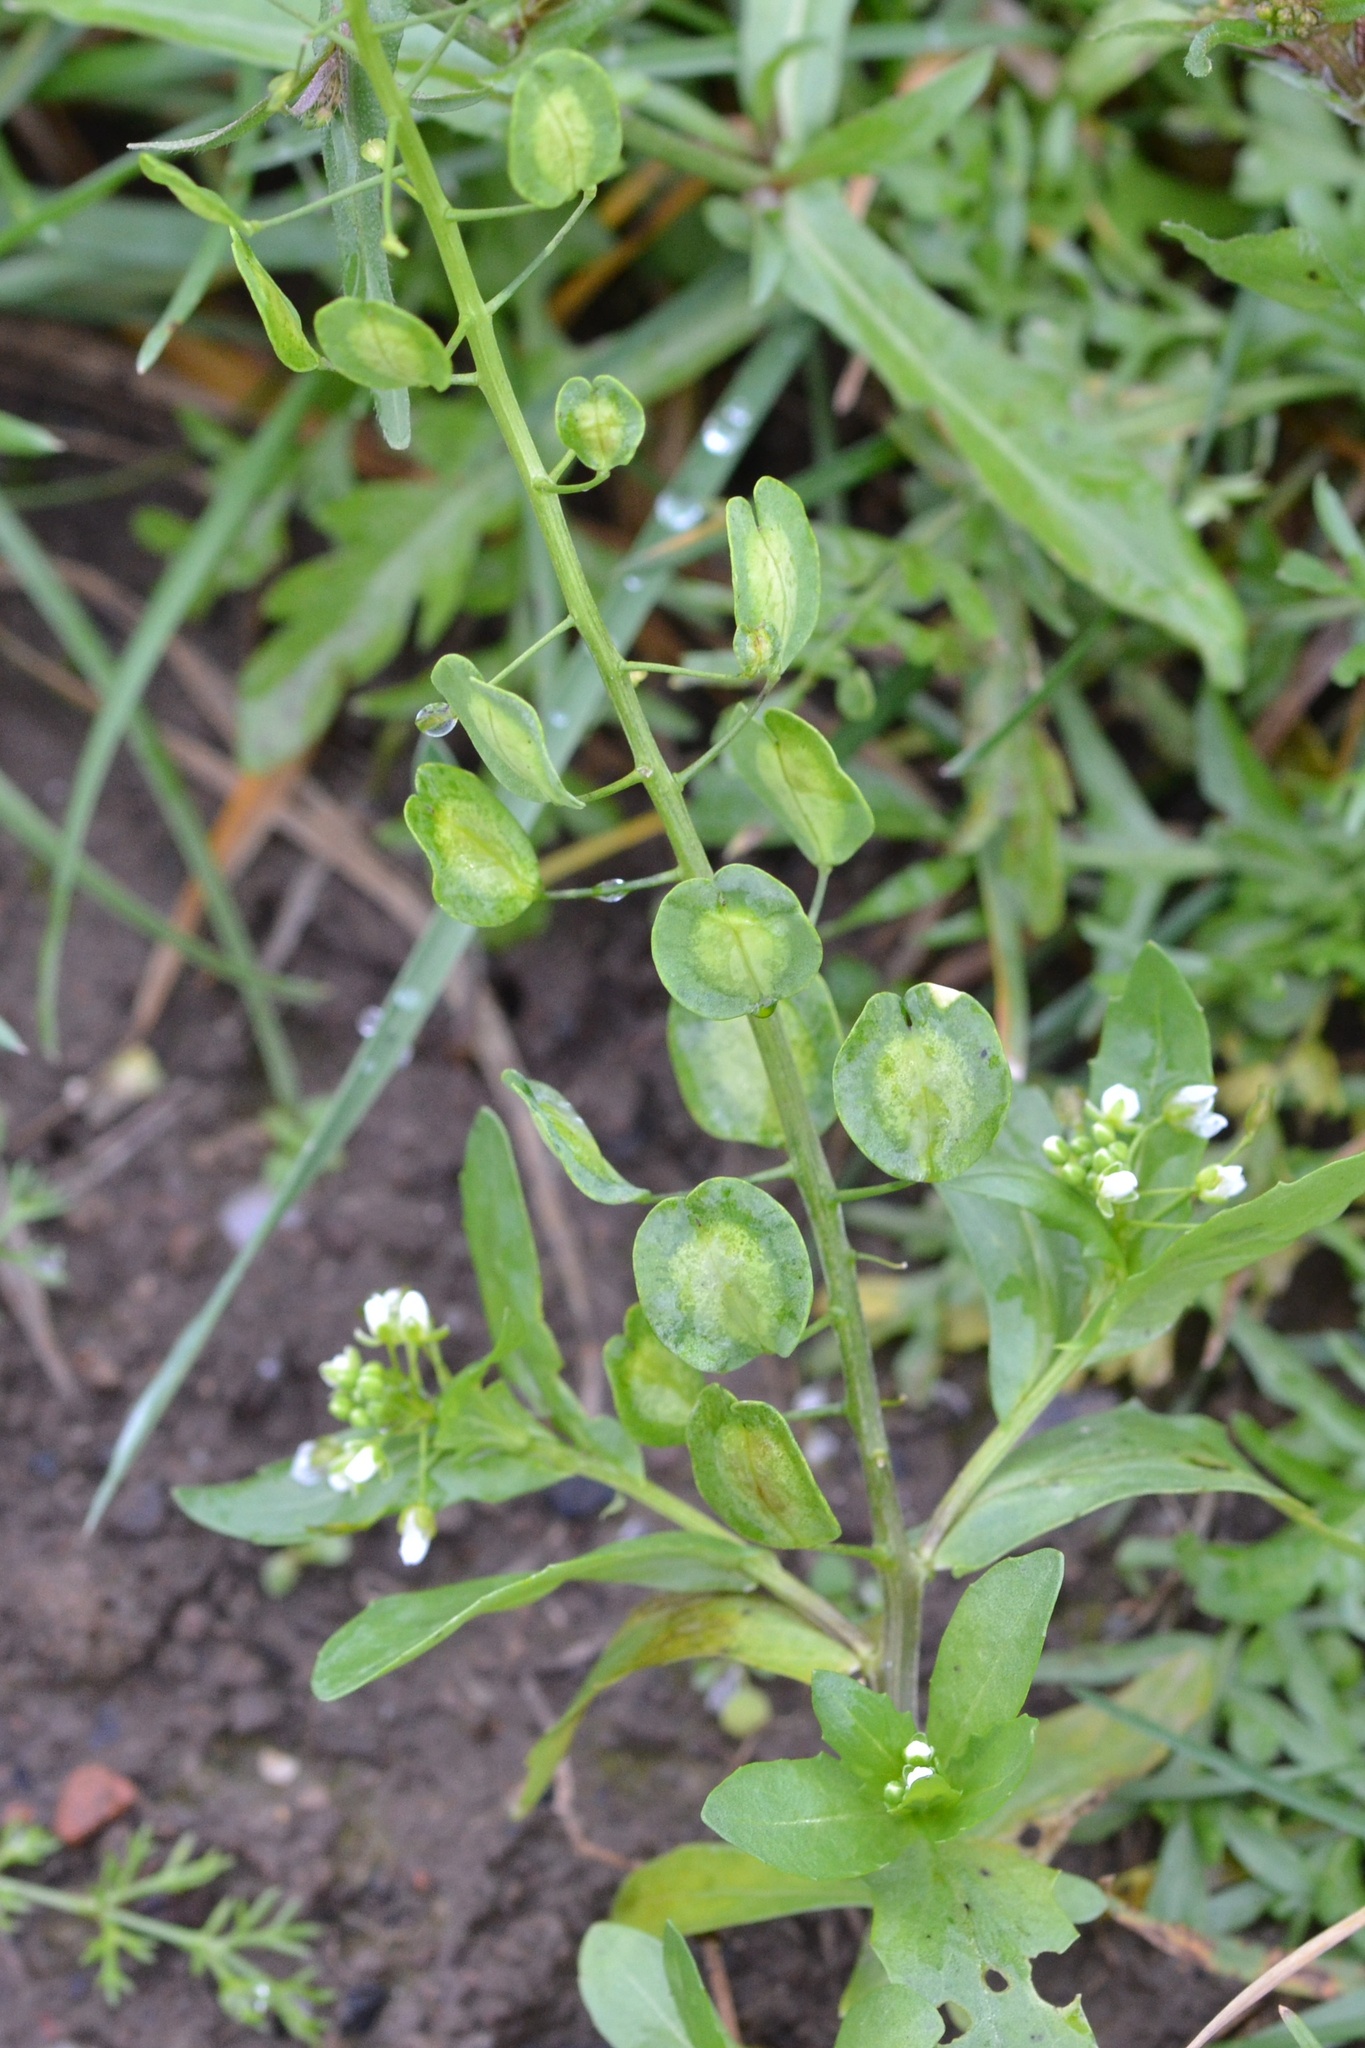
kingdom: Plantae
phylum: Tracheophyta
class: Magnoliopsida
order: Brassicales
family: Brassicaceae
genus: Thlaspi
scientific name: Thlaspi arvense
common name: Field pennycress
